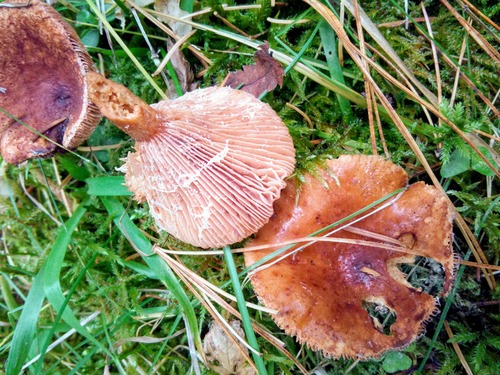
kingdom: Fungi
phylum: Basidiomycota
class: Agaricomycetes
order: Russulales
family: Russulaceae
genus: Lactarius
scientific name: Lactarius
